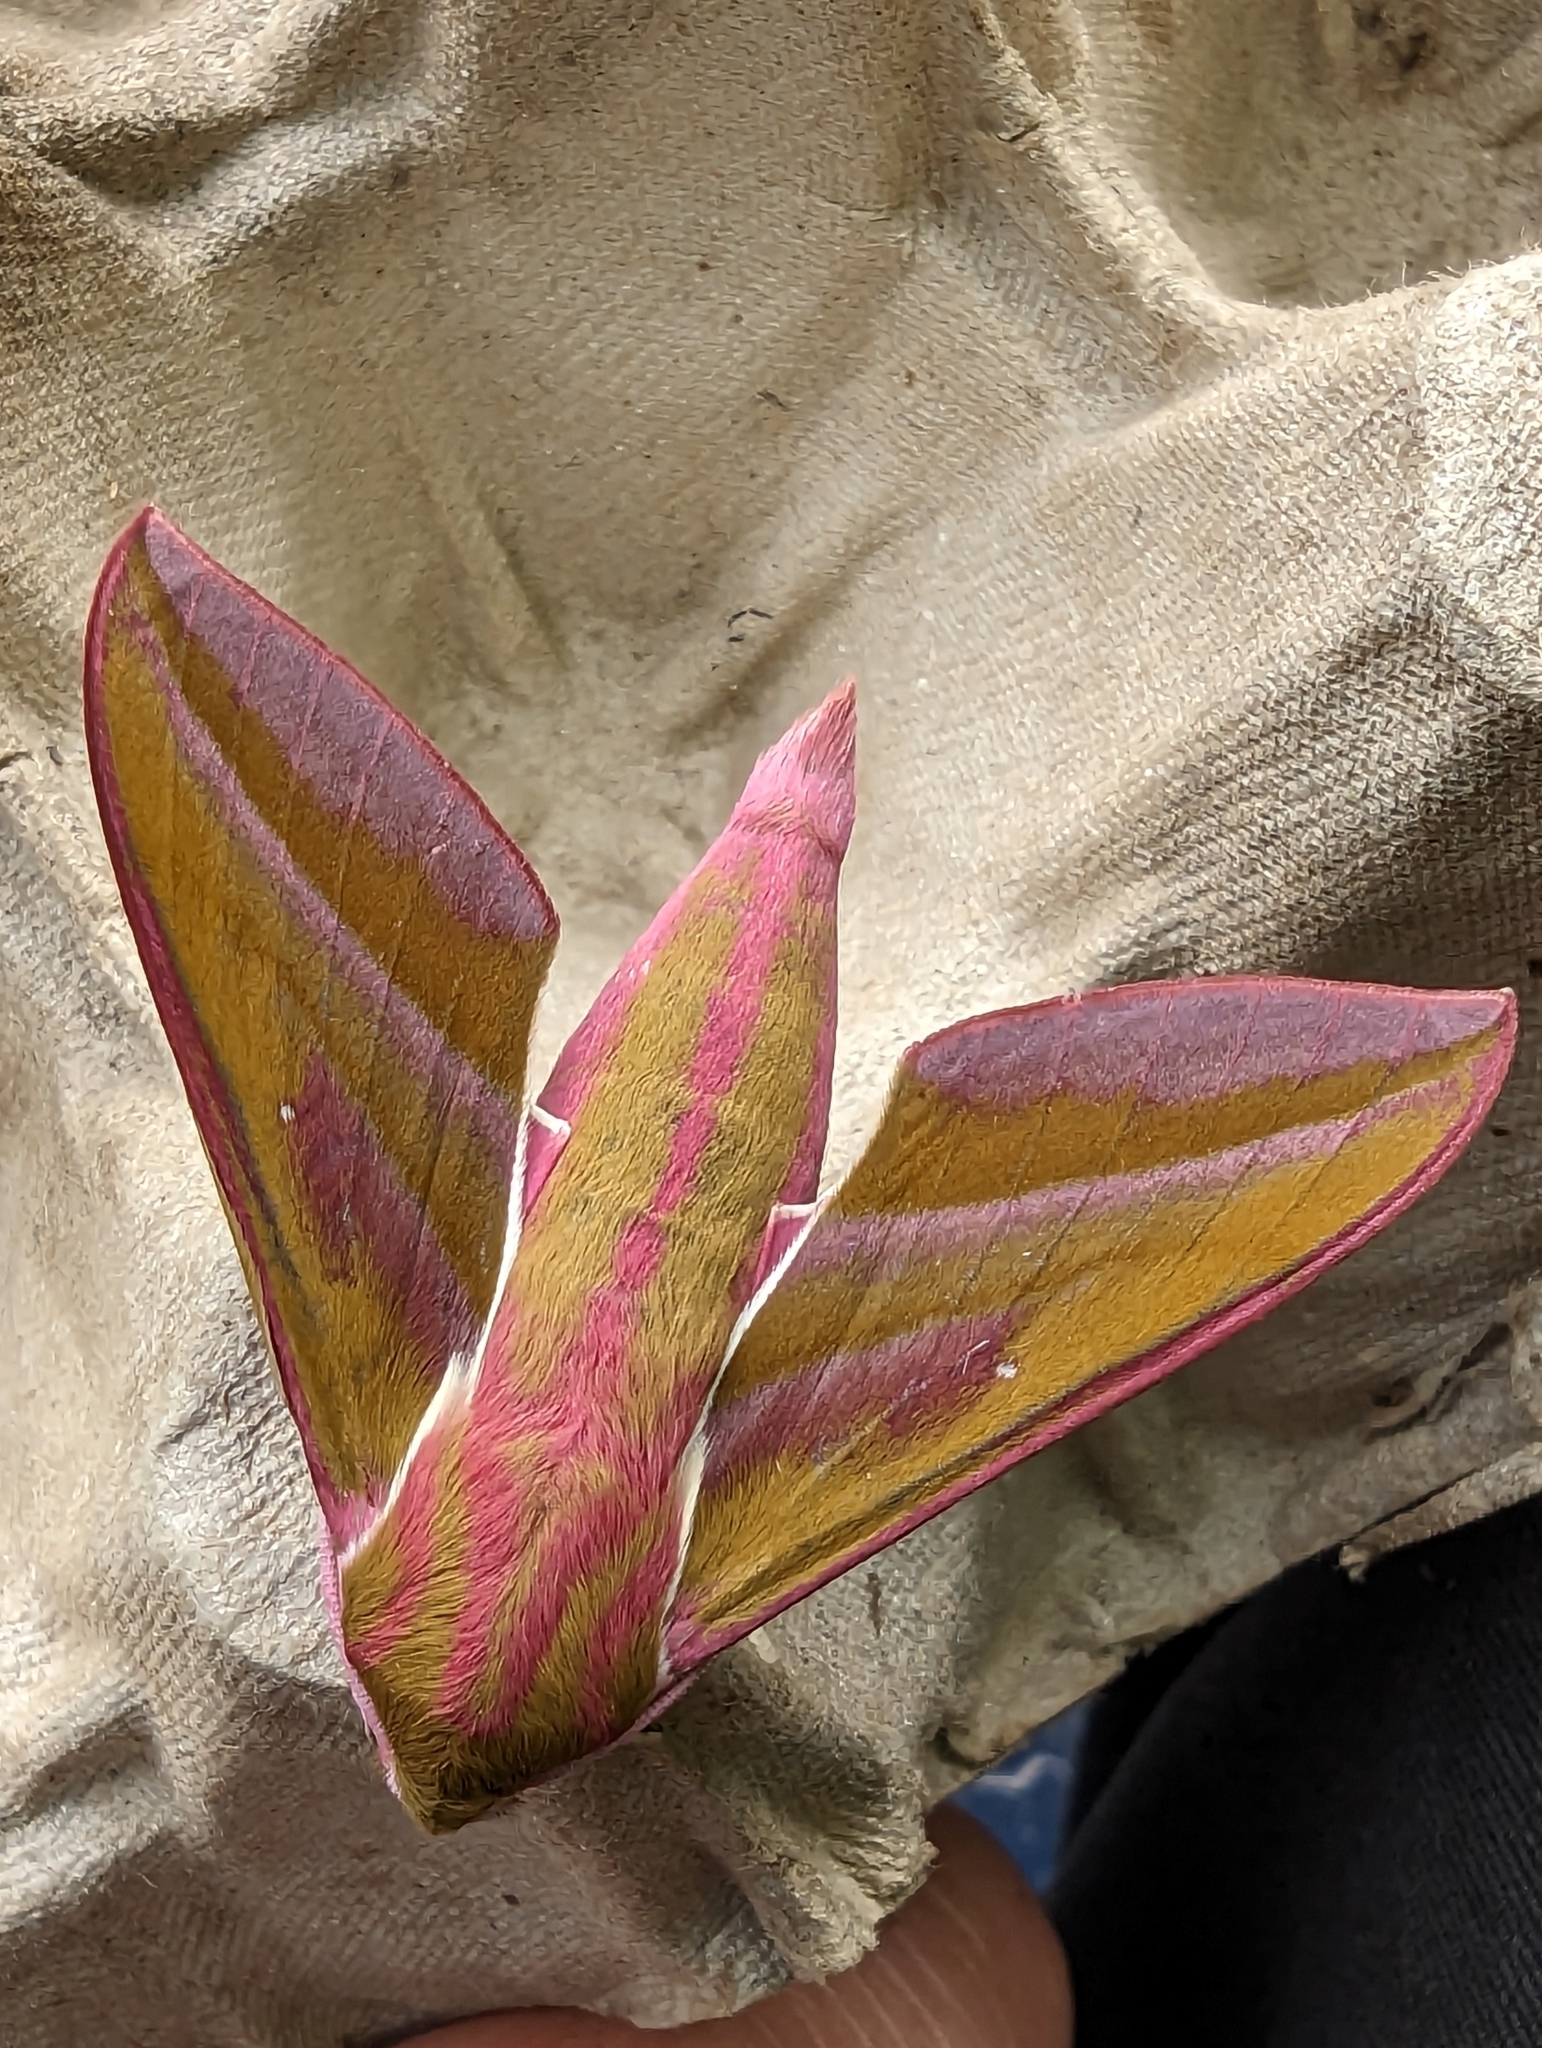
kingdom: Animalia
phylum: Arthropoda
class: Insecta
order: Lepidoptera
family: Sphingidae
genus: Deilephila
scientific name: Deilephila elpenor
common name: Elephant hawk-moth
